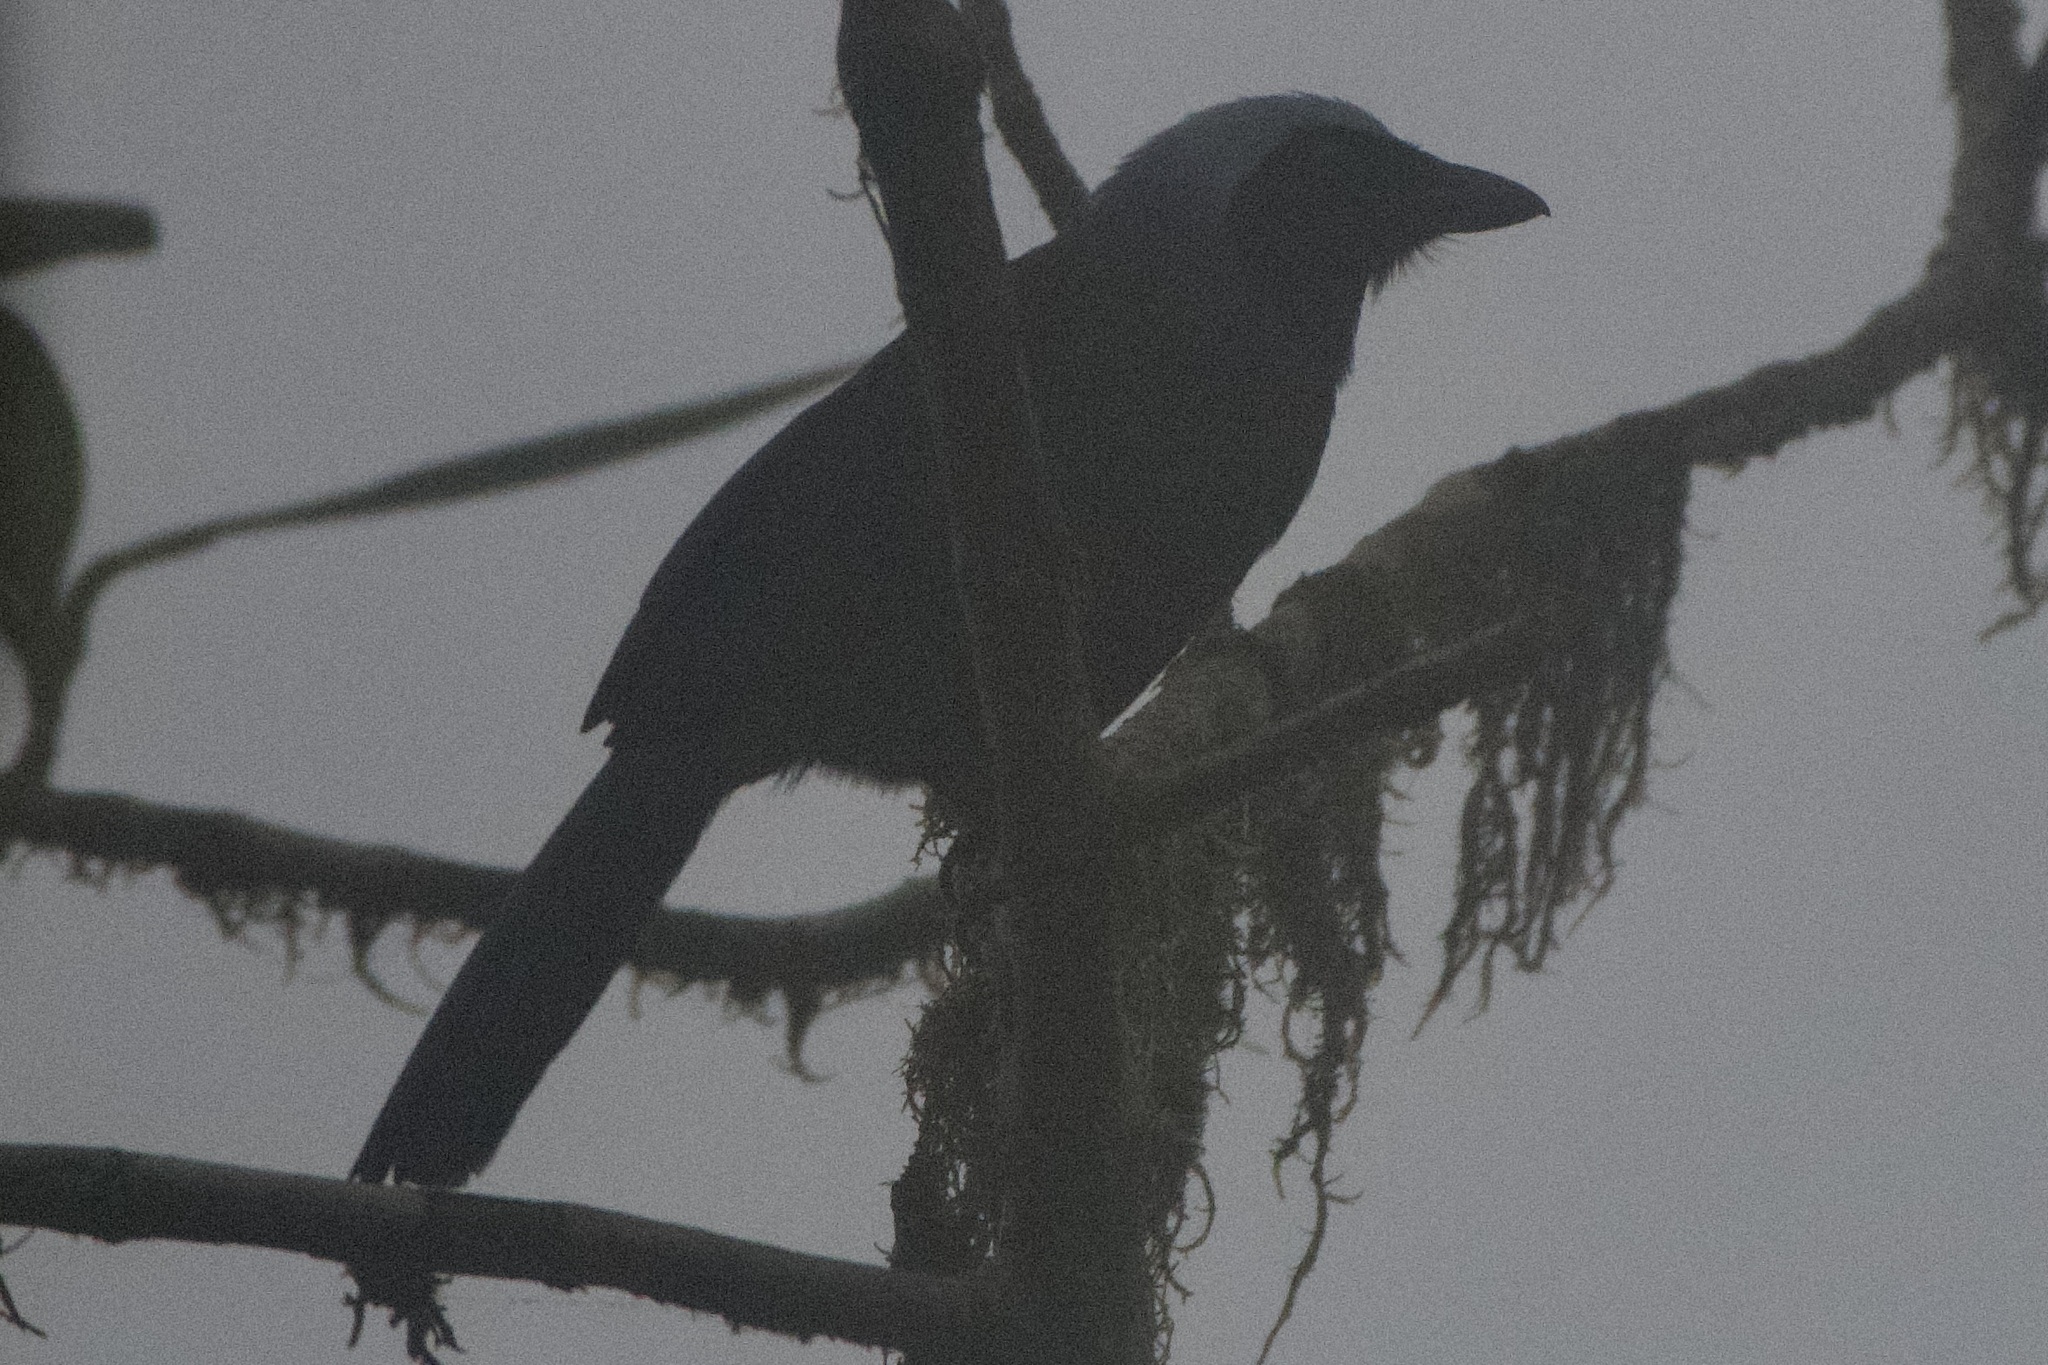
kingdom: Animalia
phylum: Chordata
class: Aves
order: Passeriformes
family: Corvidae
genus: Cyanolyca
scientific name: Cyanolyca pulchra
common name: Beautiful jay
